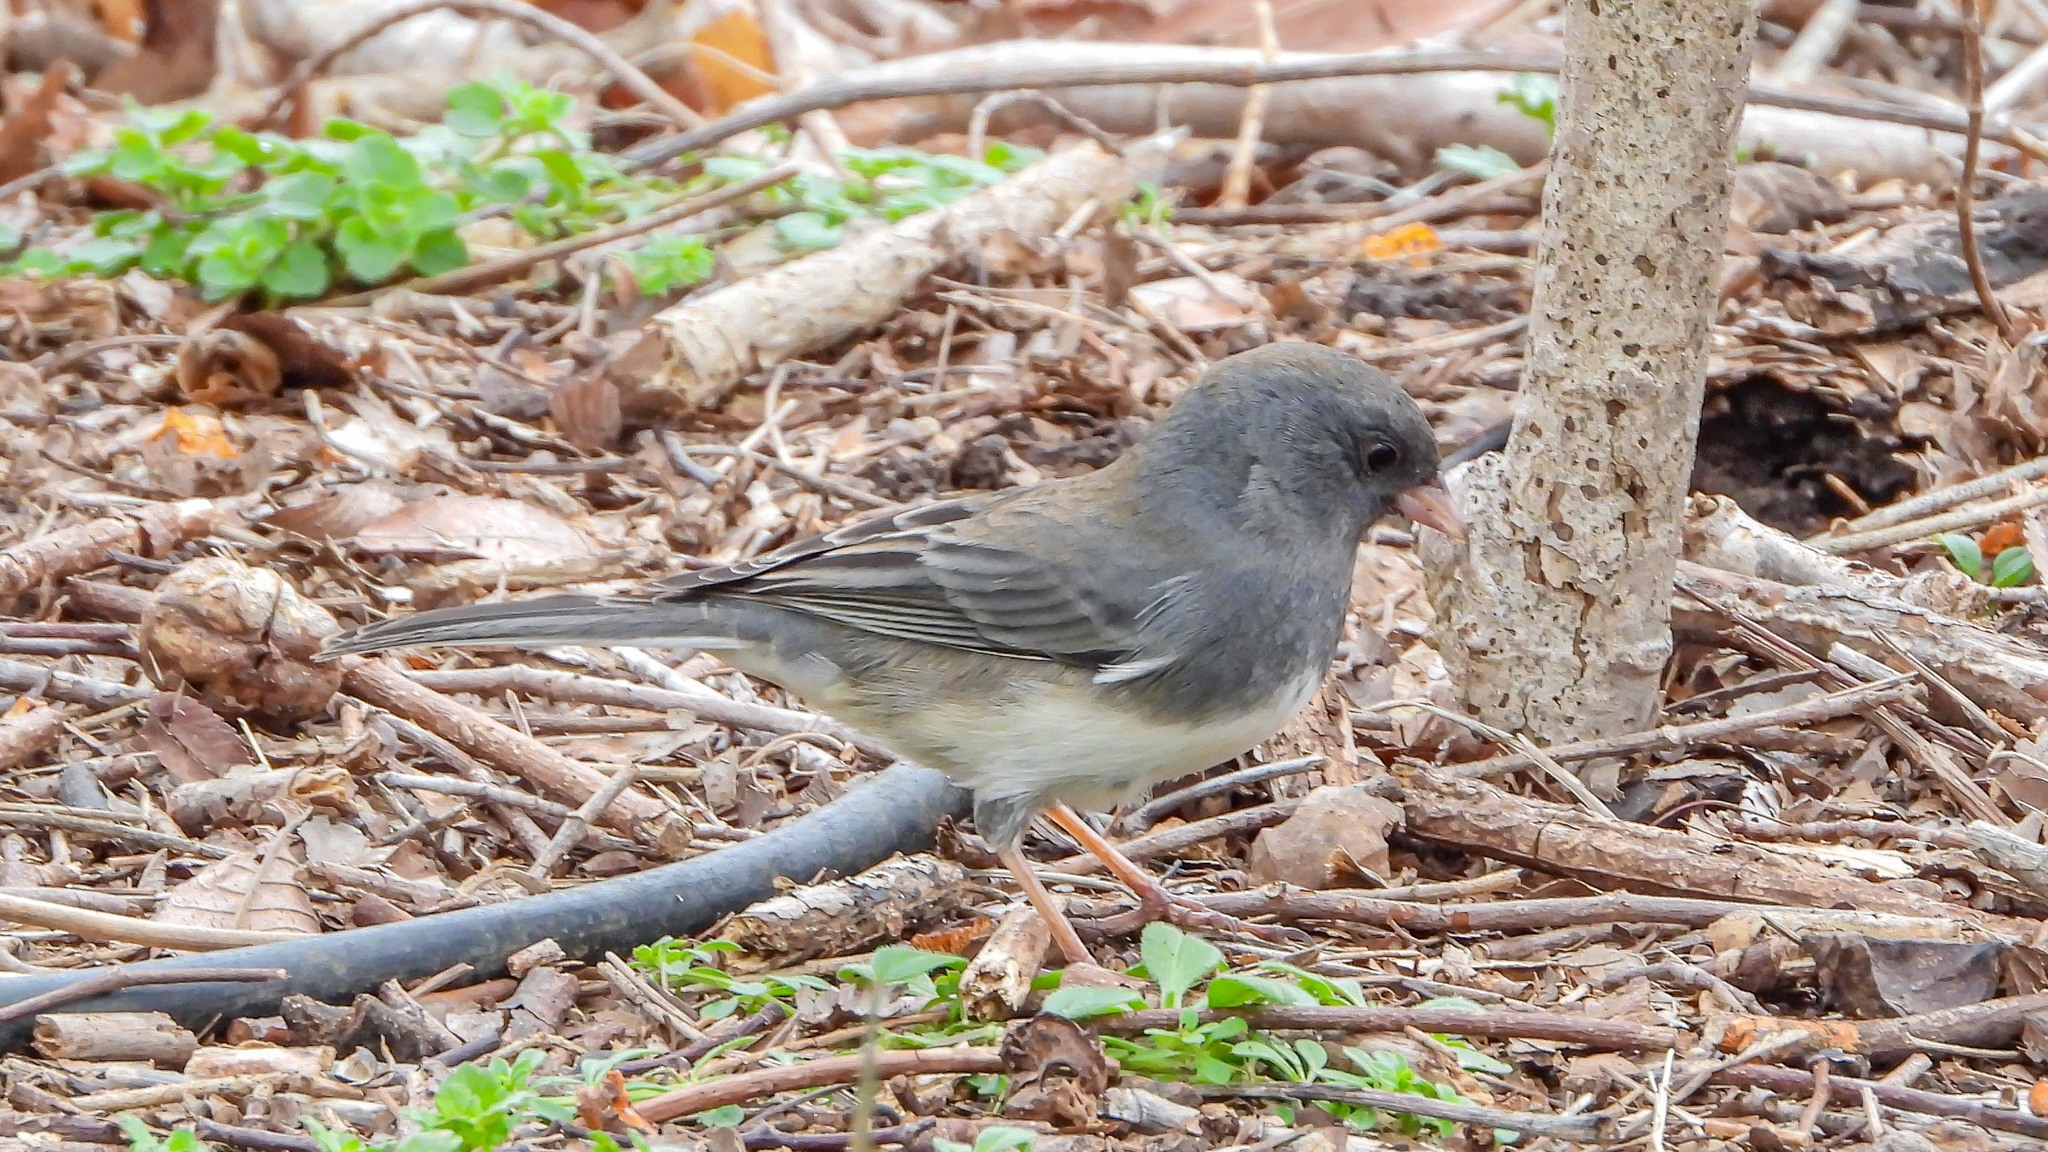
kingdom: Animalia
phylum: Chordata
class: Aves
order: Passeriformes
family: Passerellidae
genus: Junco
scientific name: Junco hyemalis
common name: Dark-eyed junco
